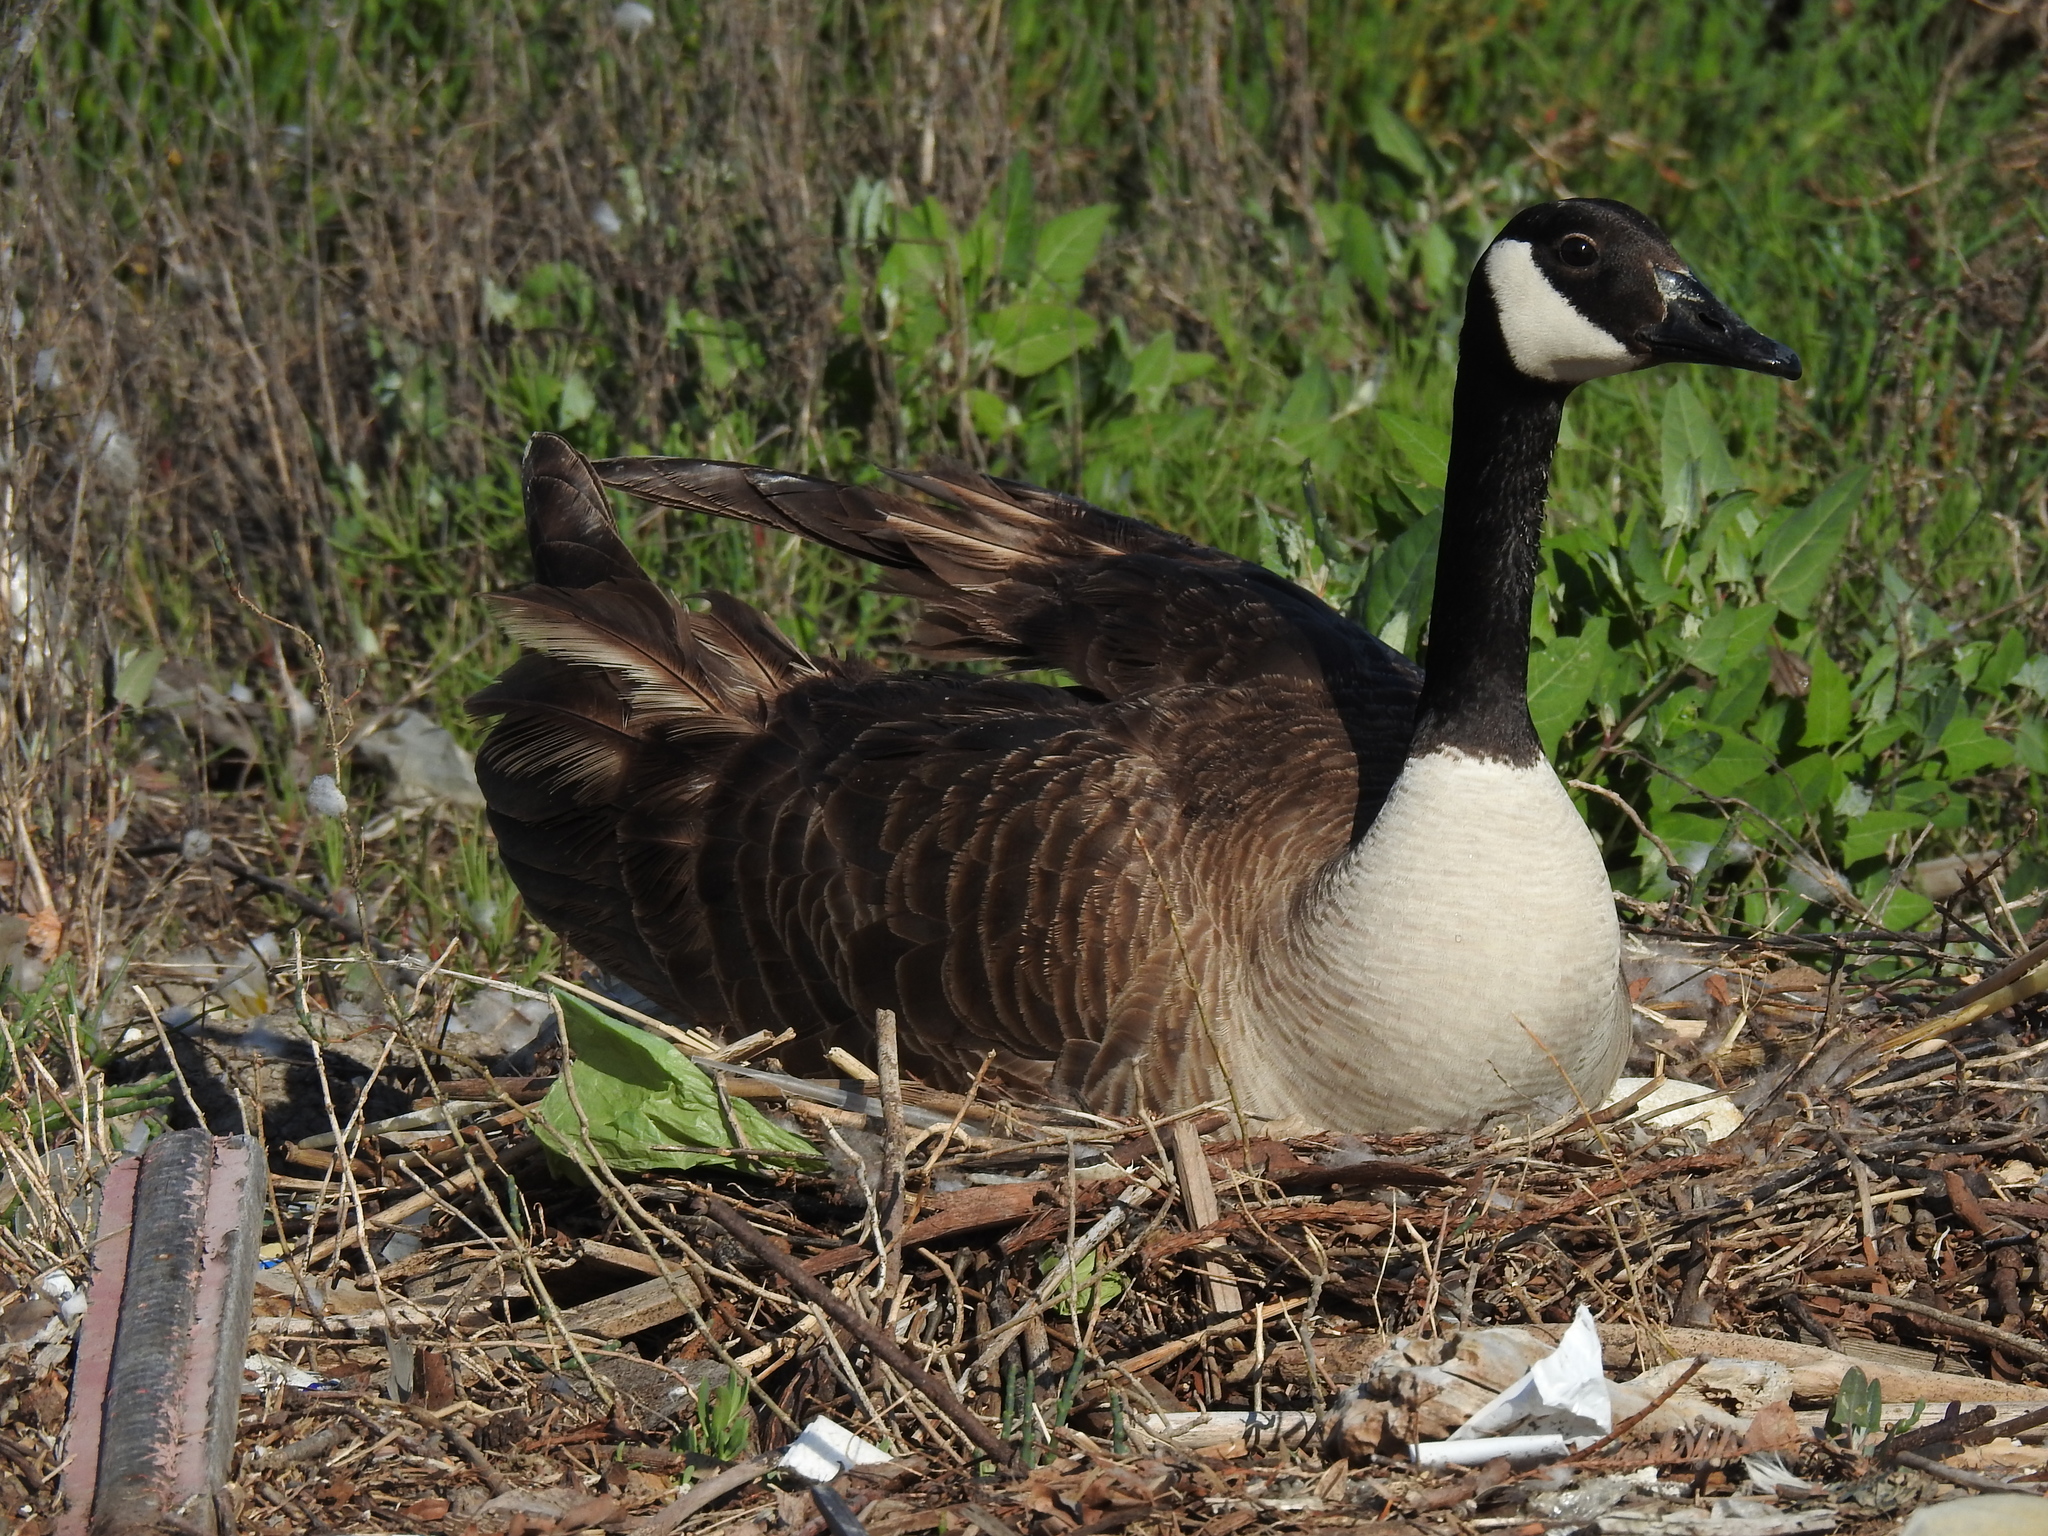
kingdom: Animalia
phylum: Chordata
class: Aves
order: Anseriformes
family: Anatidae
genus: Branta
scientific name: Branta canadensis
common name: Canada goose
